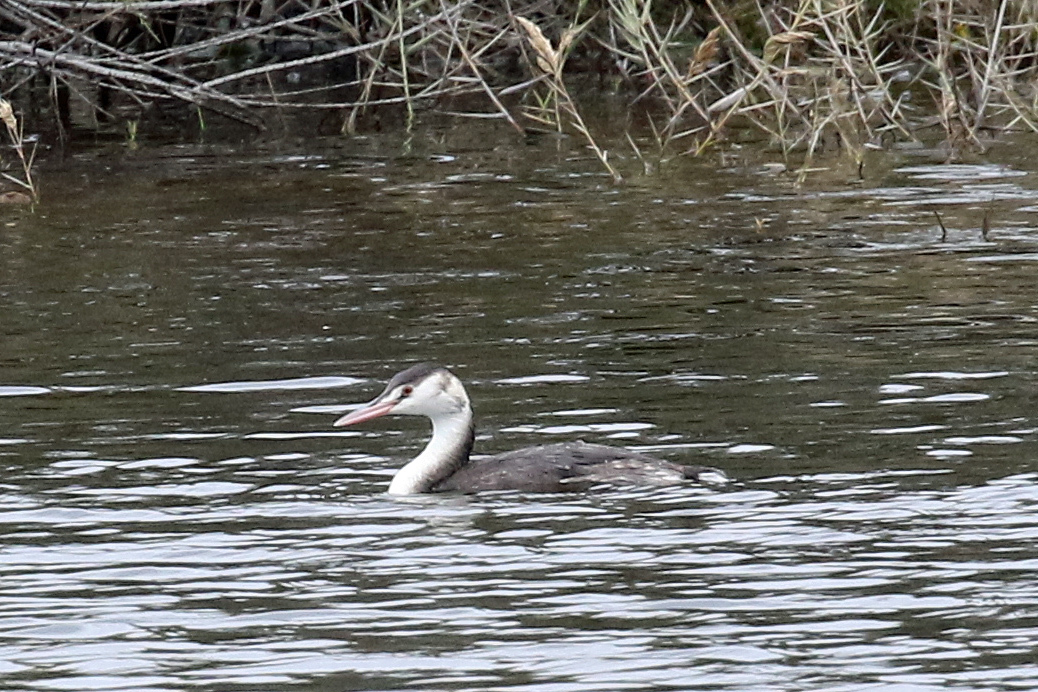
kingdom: Animalia
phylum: Chordata
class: Aves
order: Podicipediformes
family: Podicipedidae
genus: Podiceps
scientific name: Podiceps cristatus
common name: Great crested grebe
